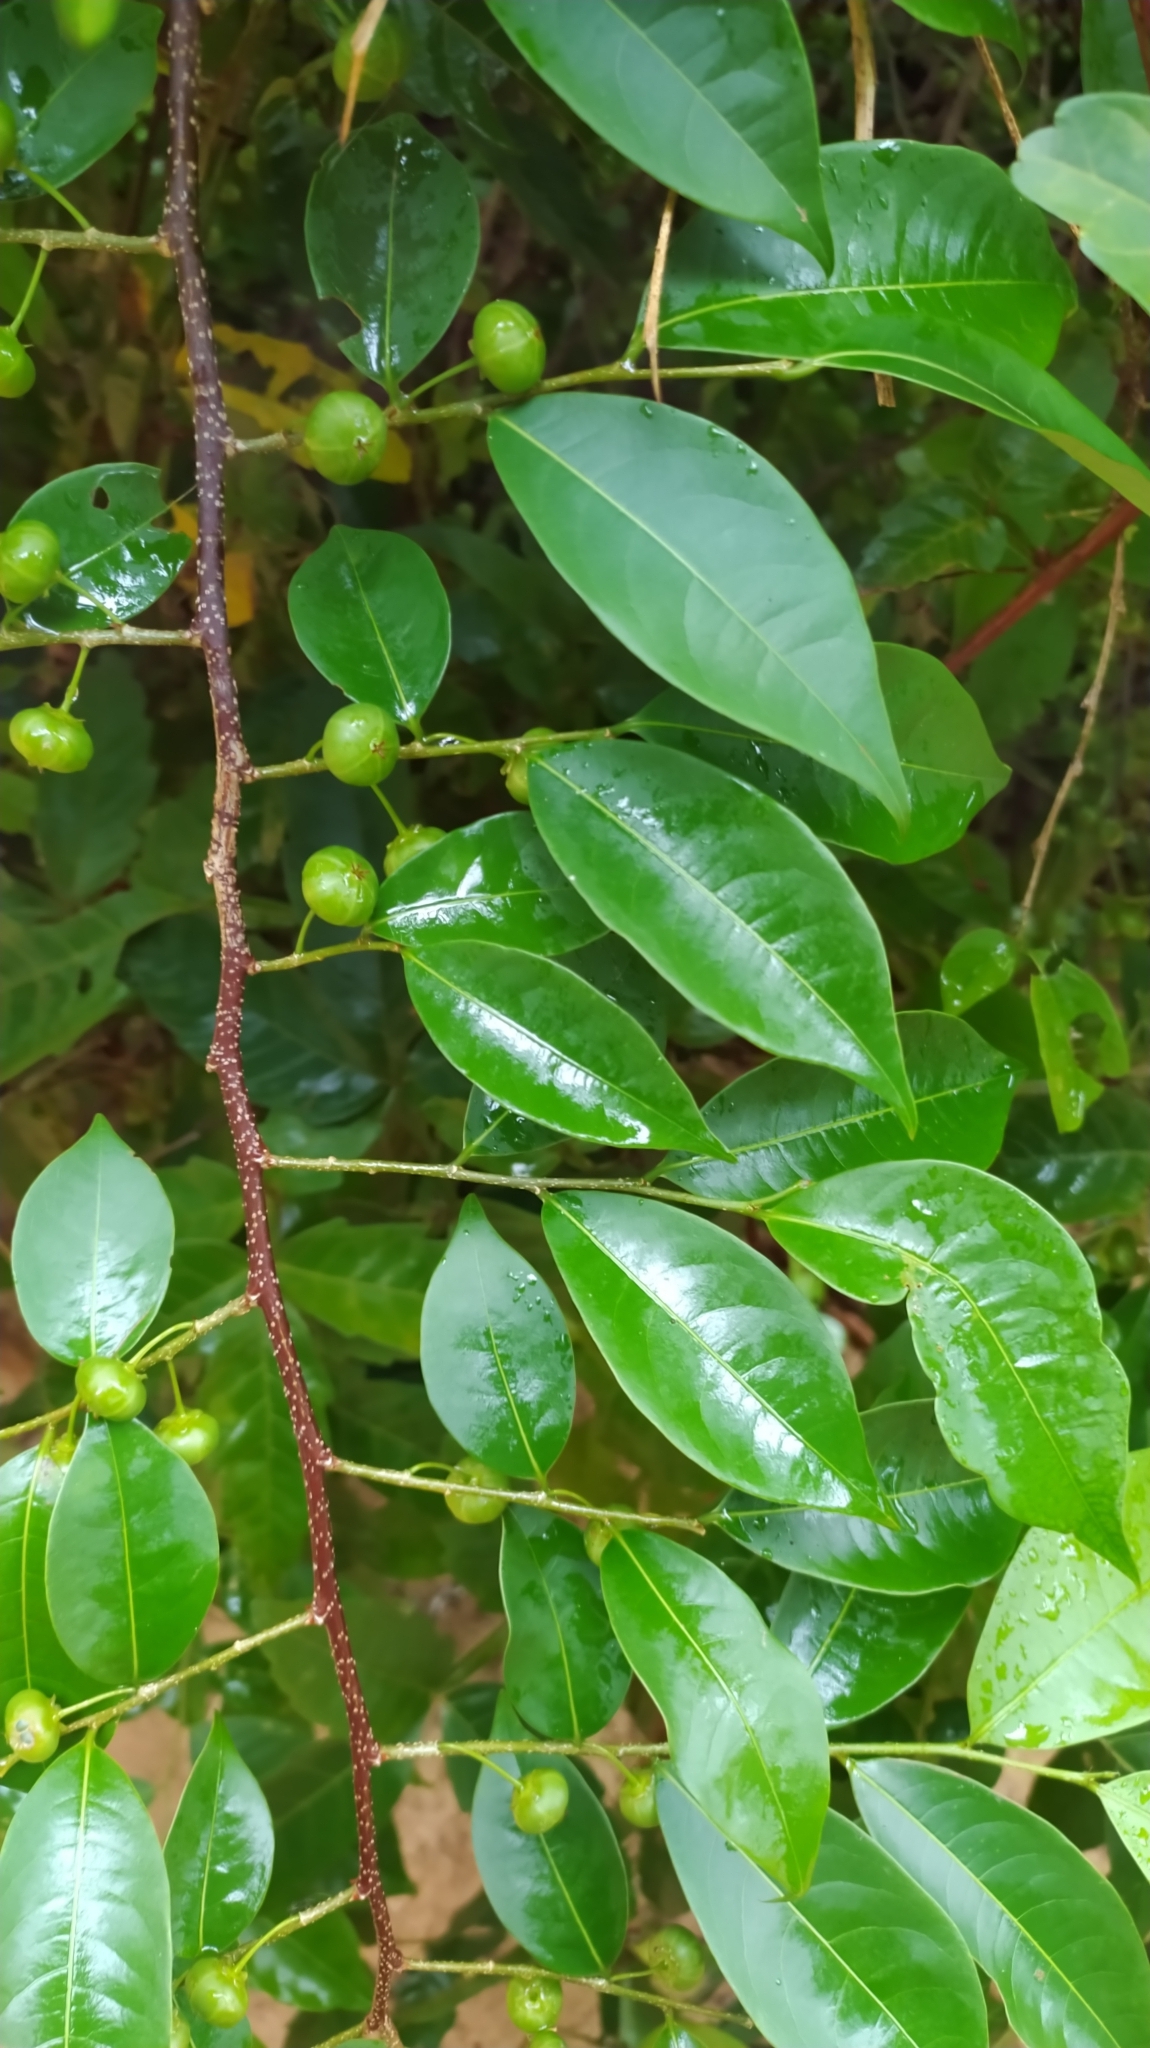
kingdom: Plantae
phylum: Tracheophyta
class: Magnoliopsida
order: Malpighiales
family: Phyllanthaceae
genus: Margaritaria
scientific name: Margaritaria nobilis
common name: Goose berry
